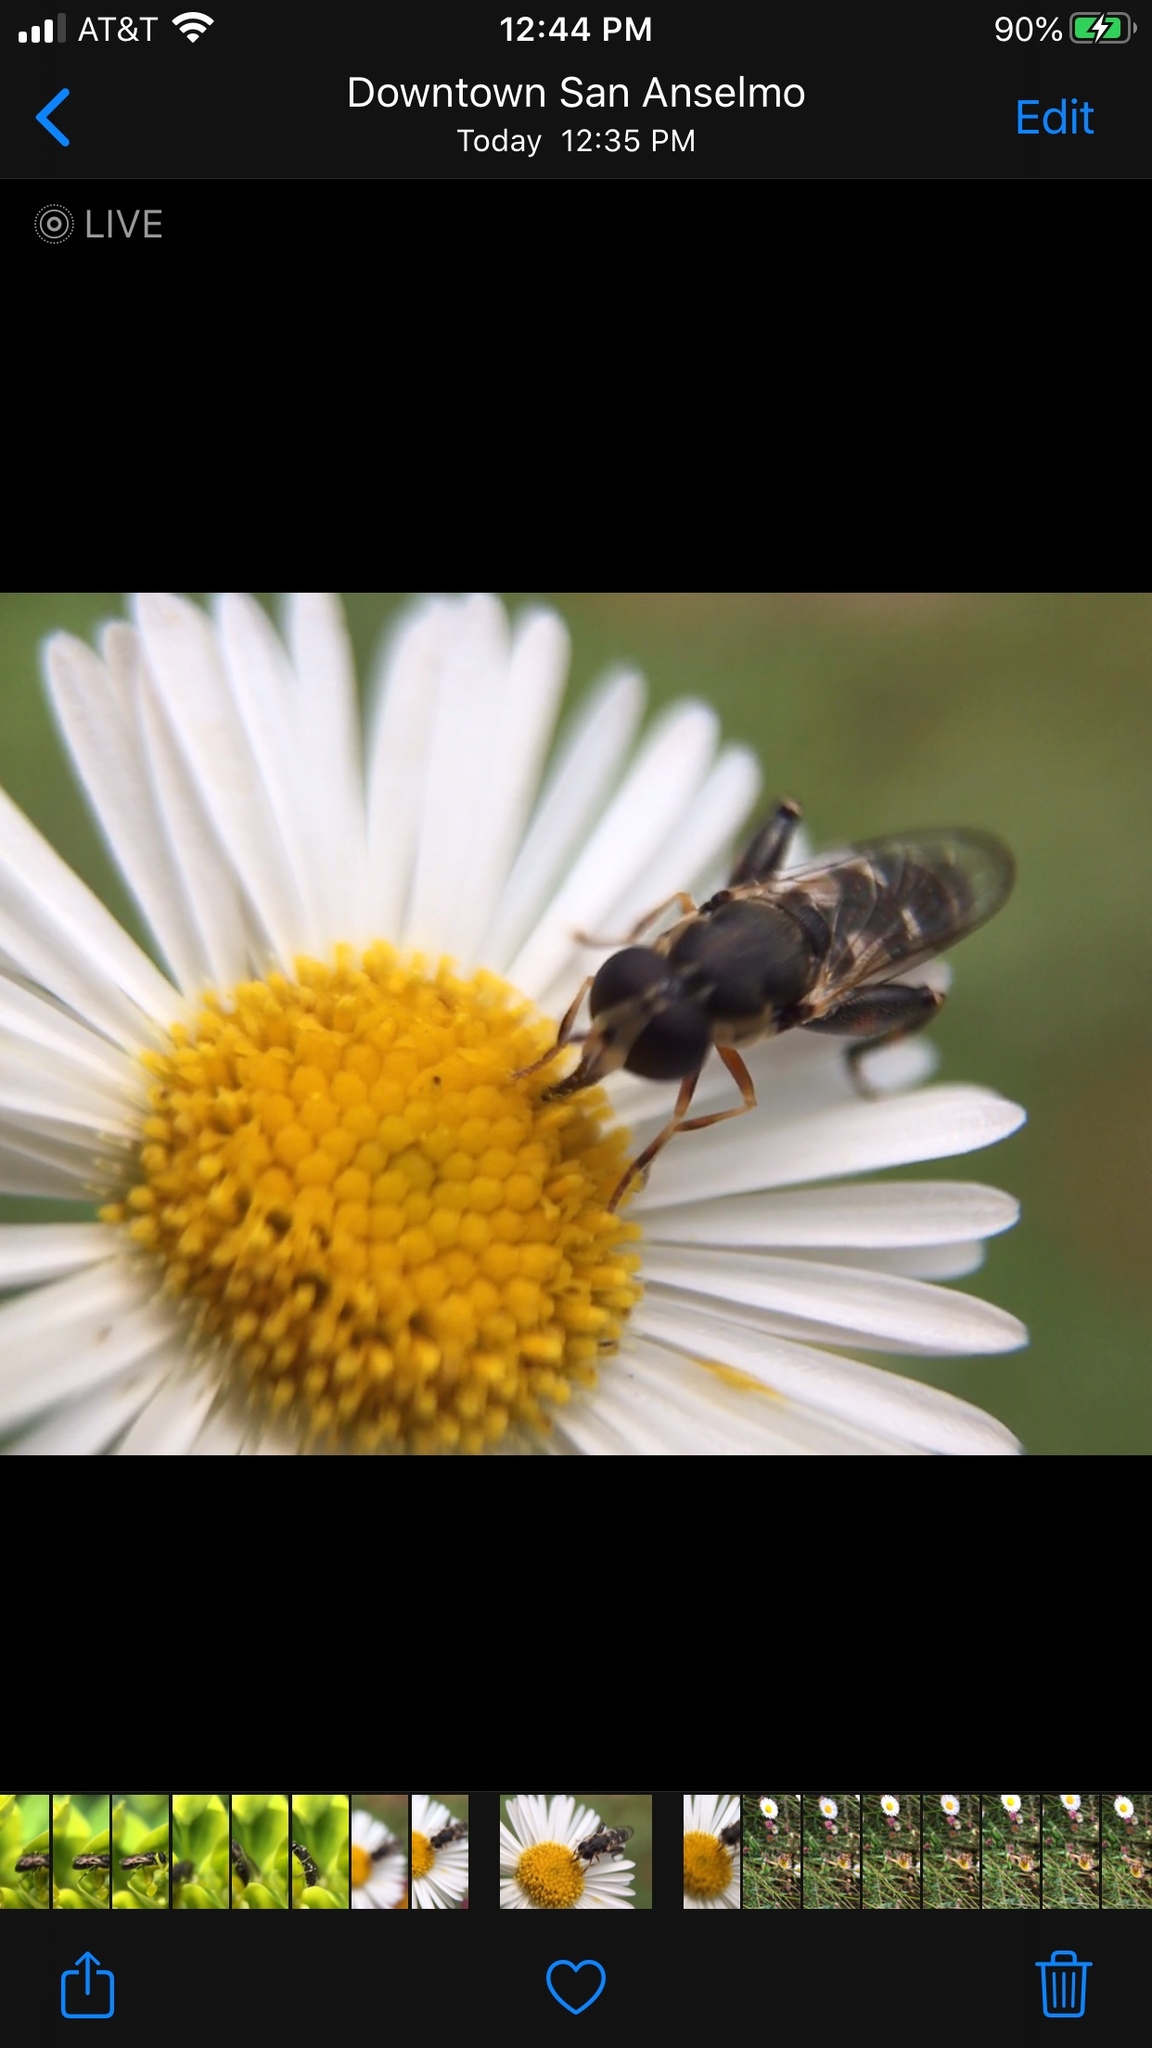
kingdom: Animalia
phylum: Arthropoda
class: Insecta
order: Diptera
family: Syrphidae
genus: Syritta
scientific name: Syritta pipiens
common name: Hover fly
